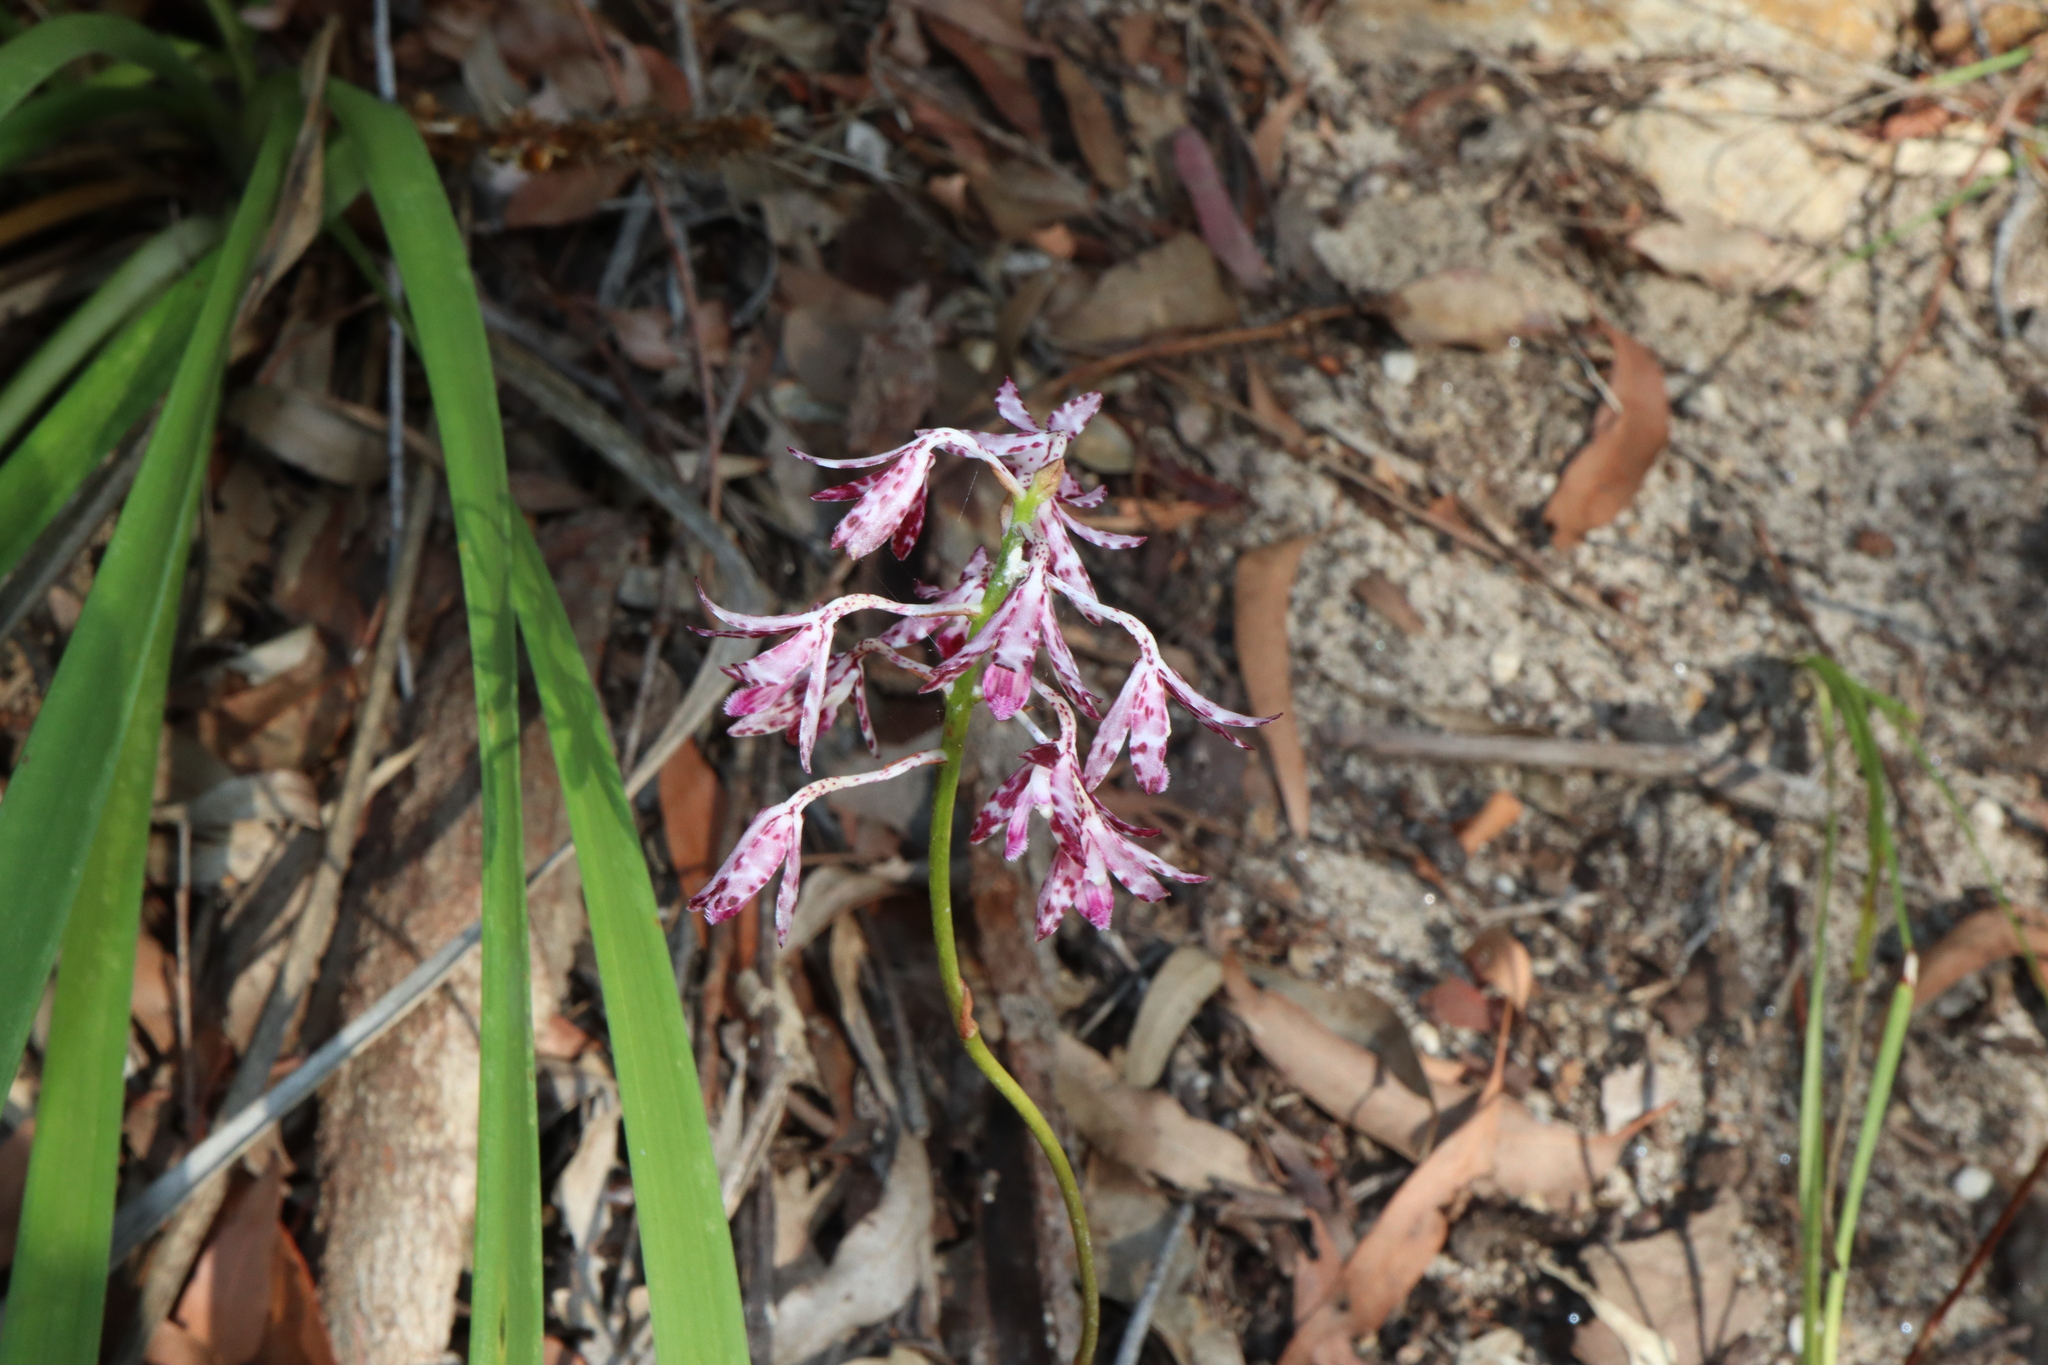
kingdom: Plantae
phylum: Tracheophyta
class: Liliopsida
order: Asparagales
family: Orchidaceae
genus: Dipodium
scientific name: Dipodium variegatum
